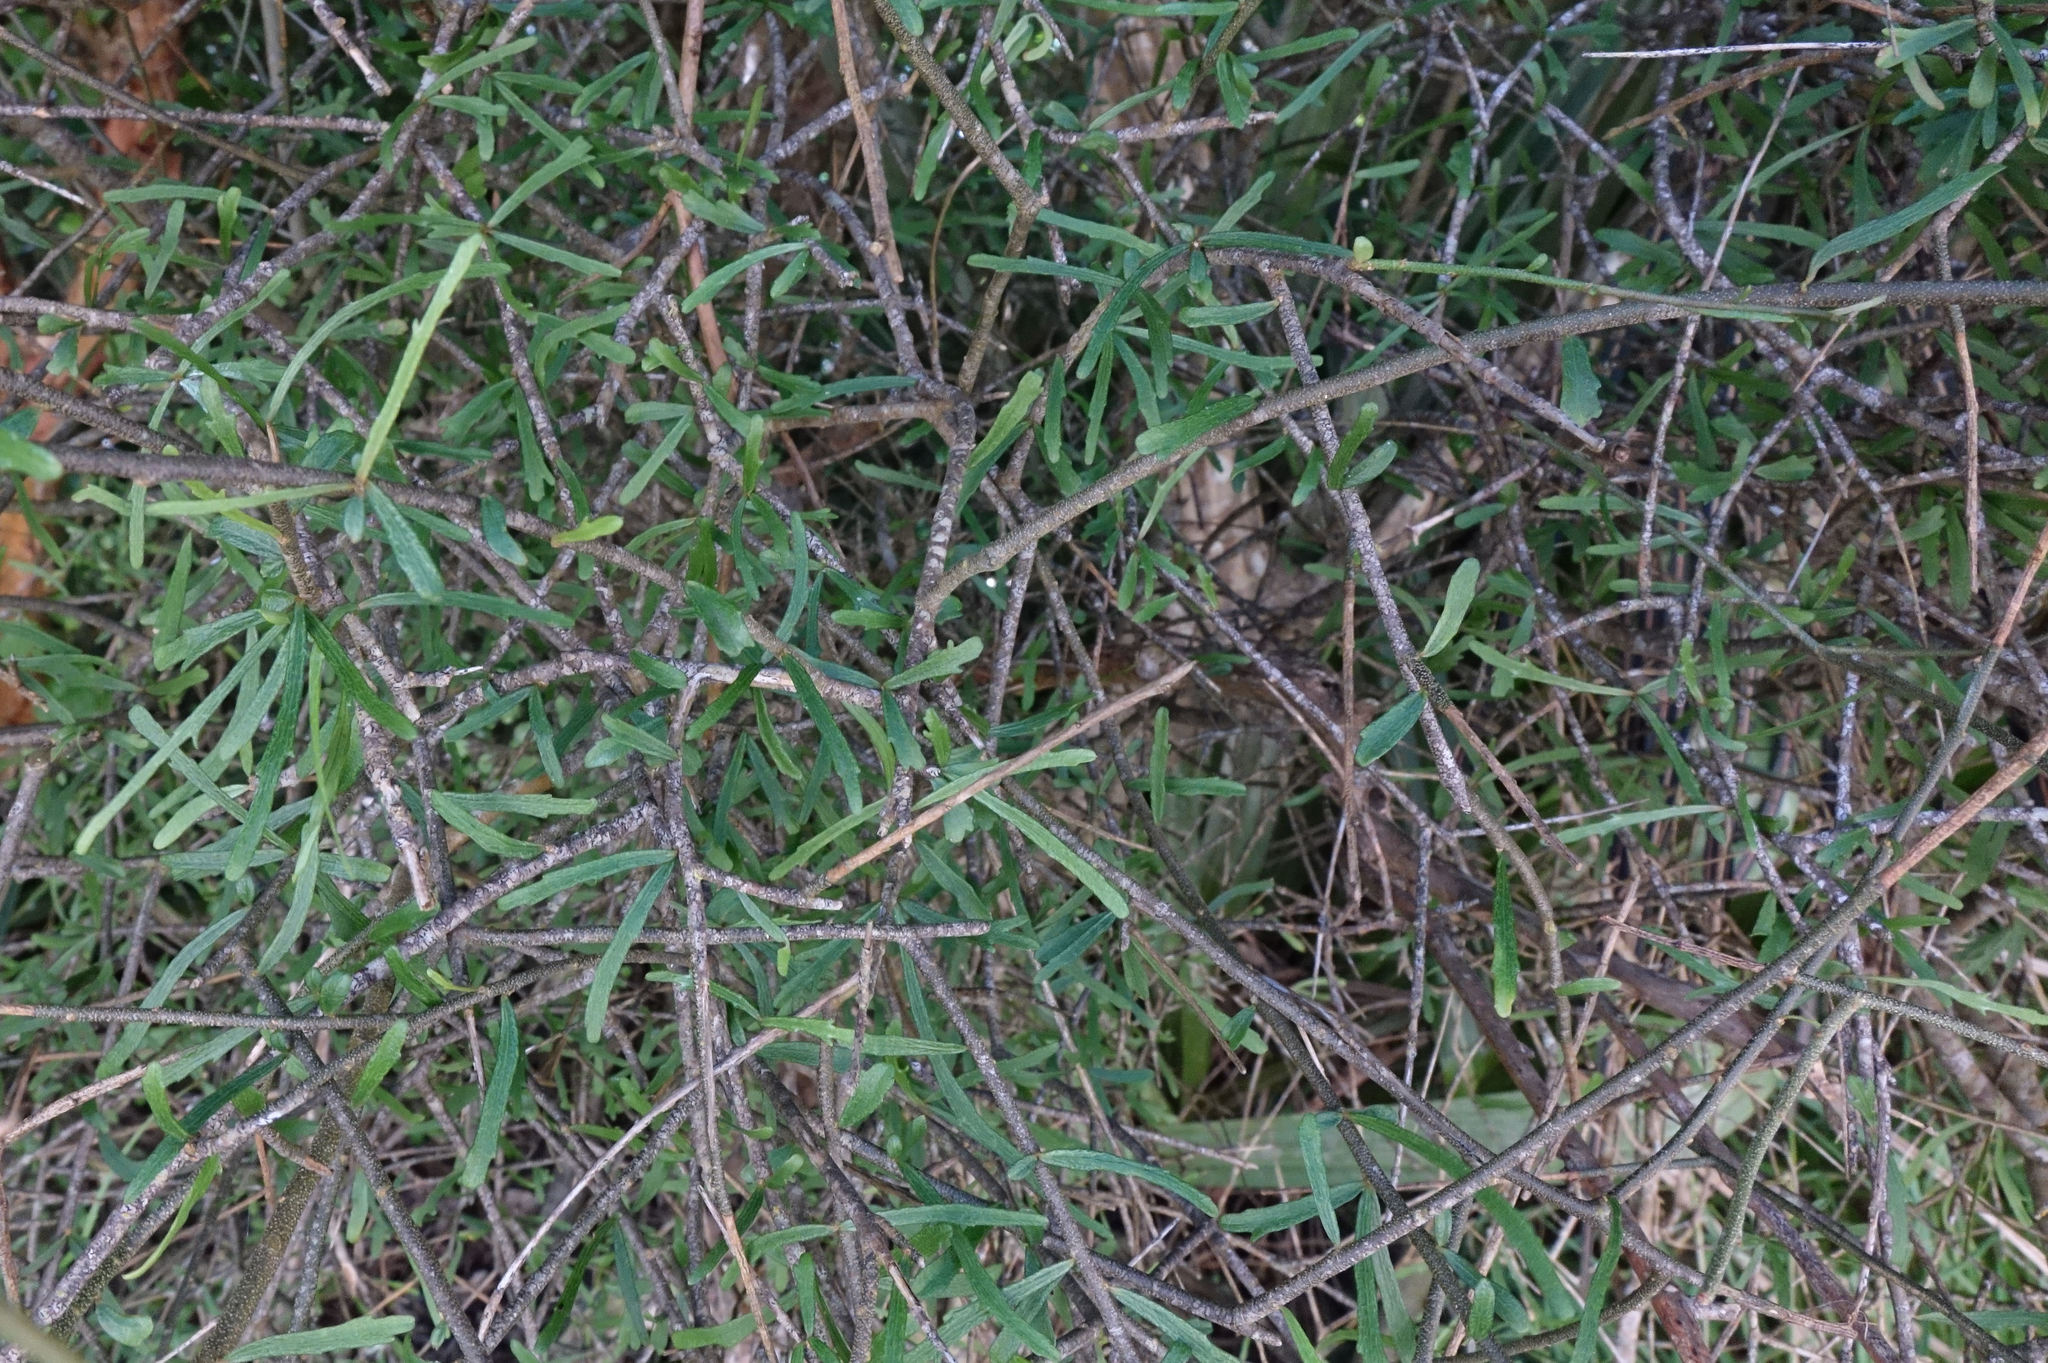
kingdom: Plantae
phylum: Tracheophyta
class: Magnoliopsida
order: Malpighiales
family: Violaceae
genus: Melicytus
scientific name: Melicytus flexuosus
